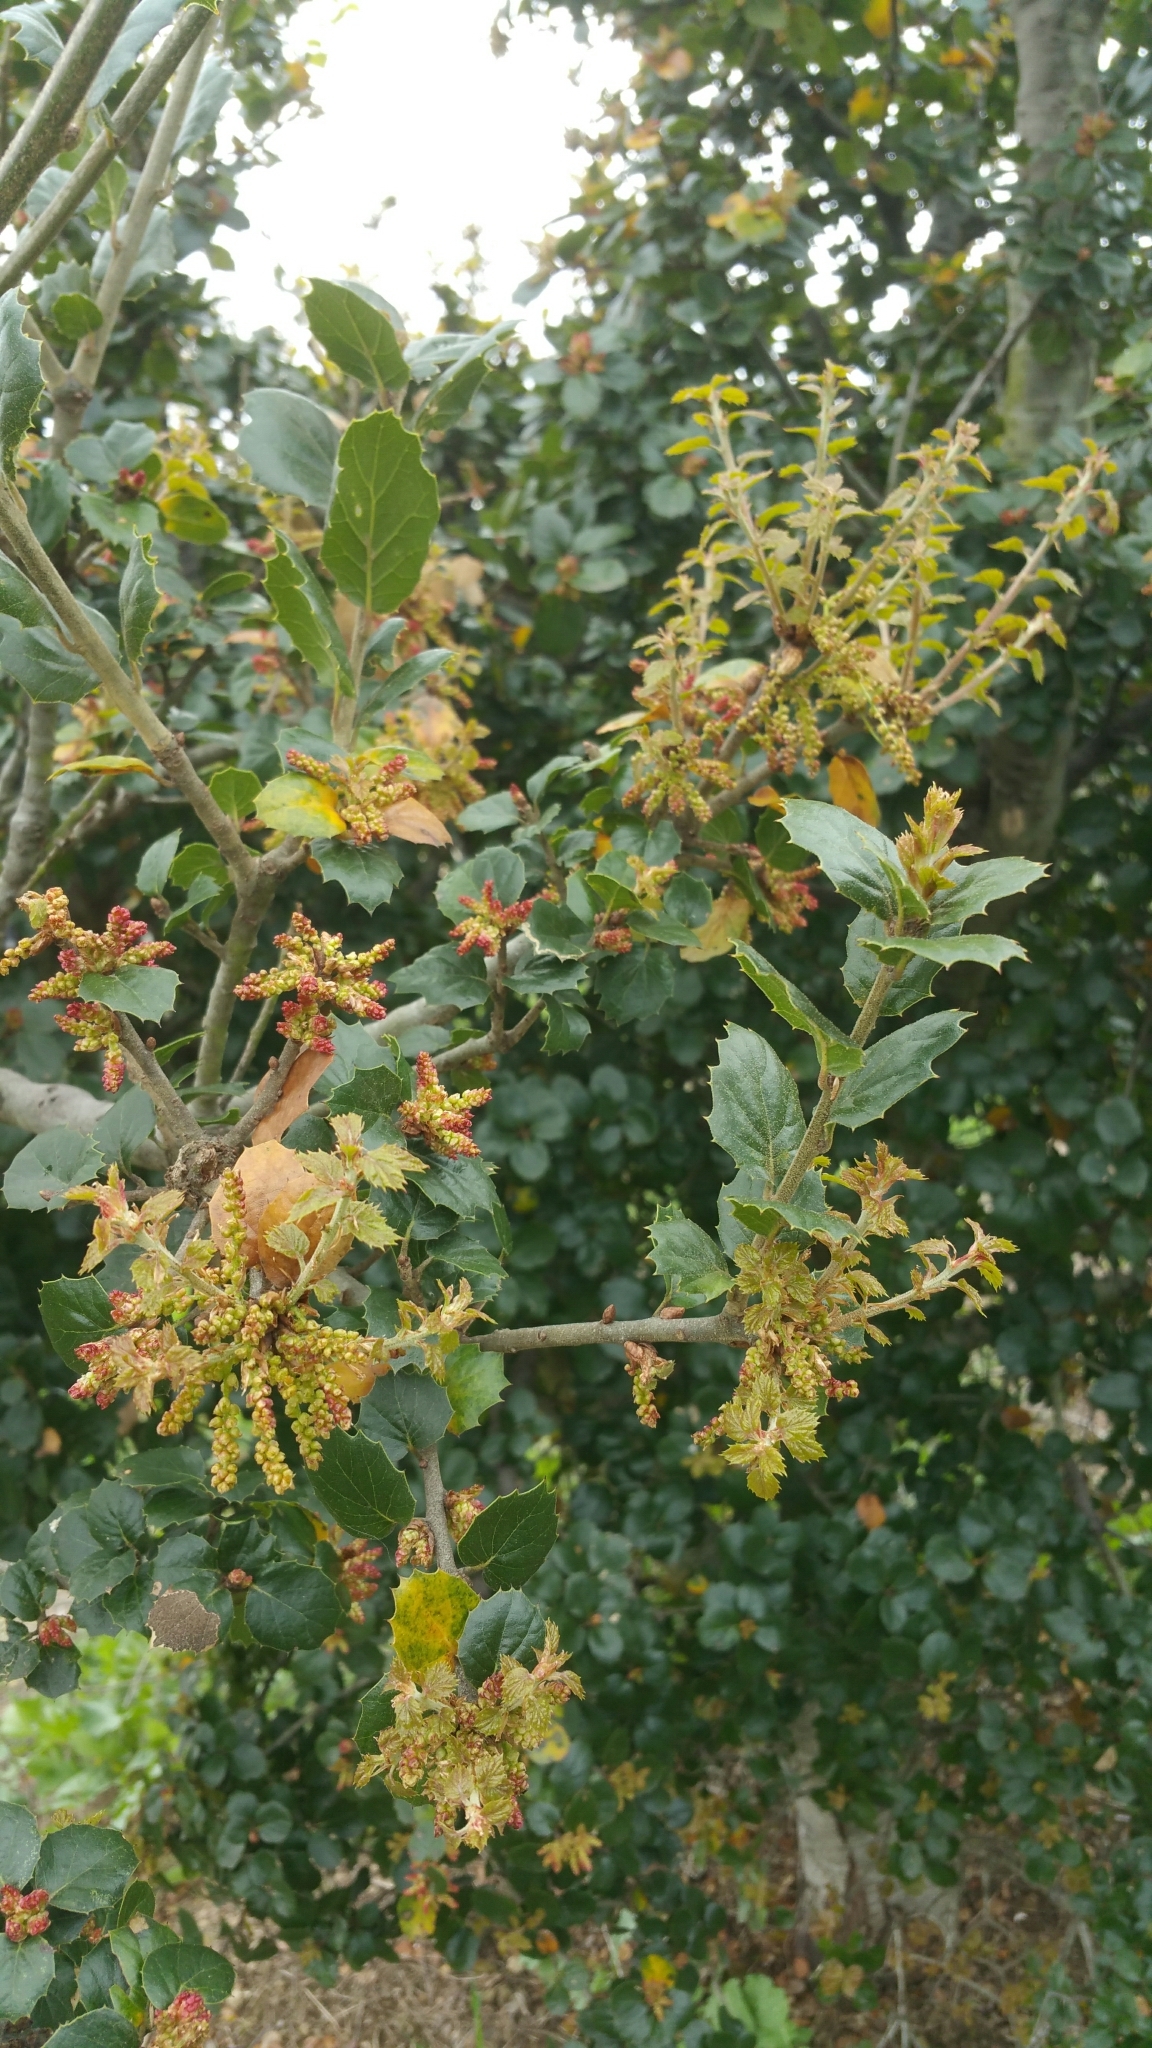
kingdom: Plantae
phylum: Tracheophyta
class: Magnoliopsida
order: Fagales
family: Fagaceae
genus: Quercus
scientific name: Quercus agrifolia
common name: California live oak
